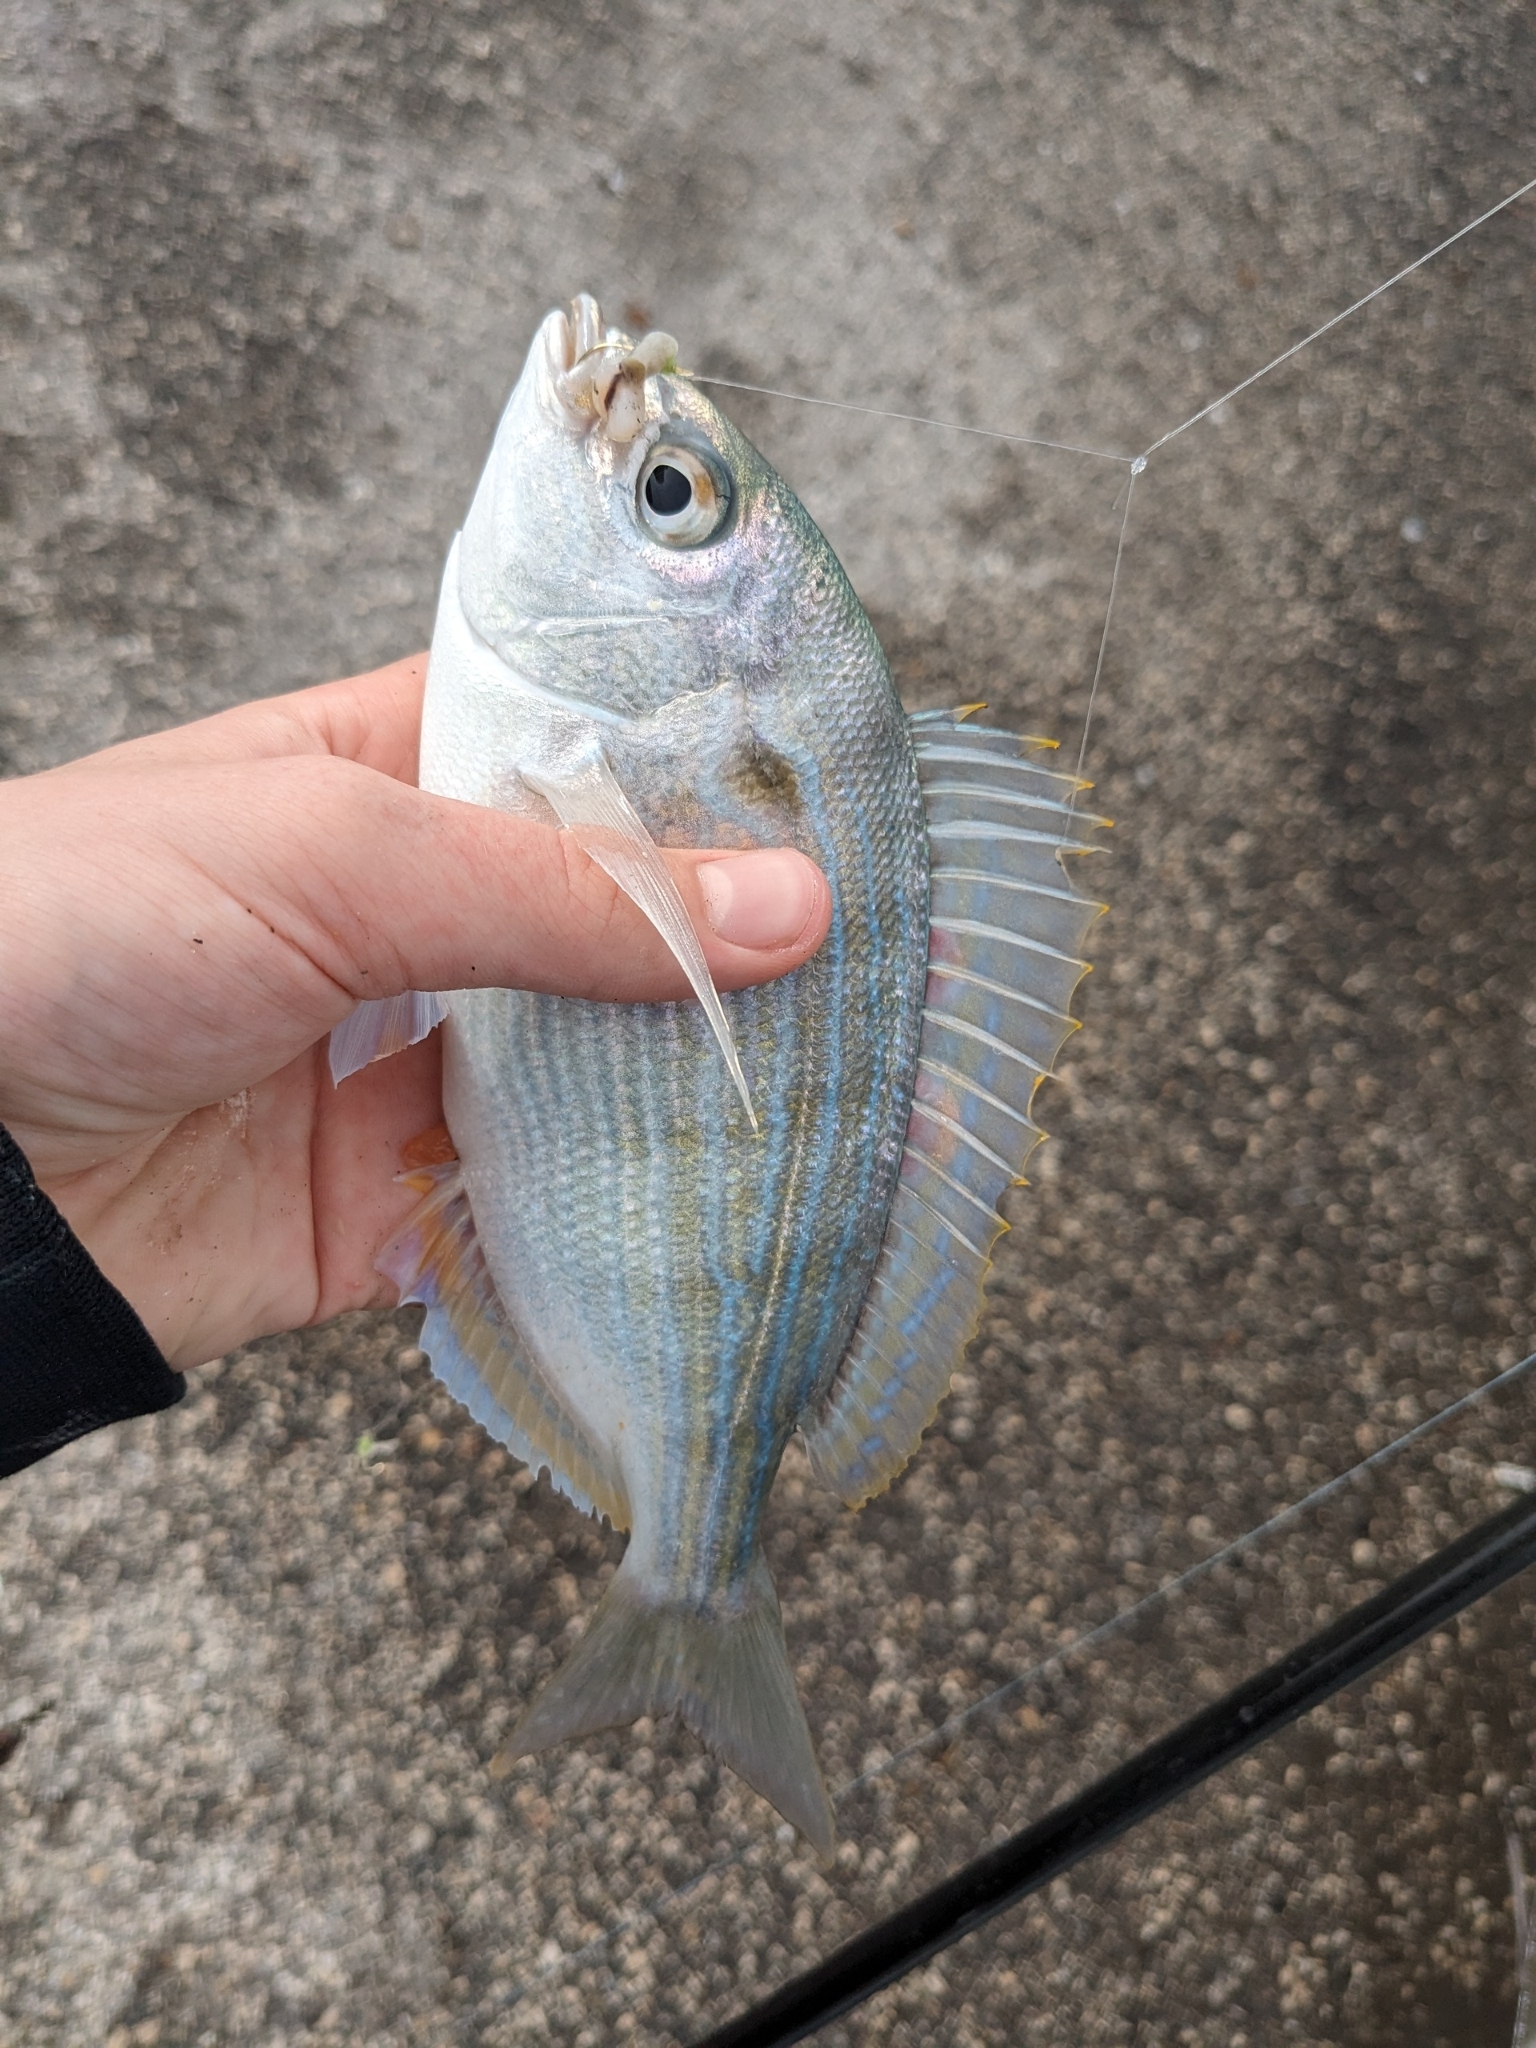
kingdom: Animalia
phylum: Chordata
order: Perciformes
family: Sparidae
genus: Lagodon
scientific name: Lagodon rhomboides
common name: Pinfish
